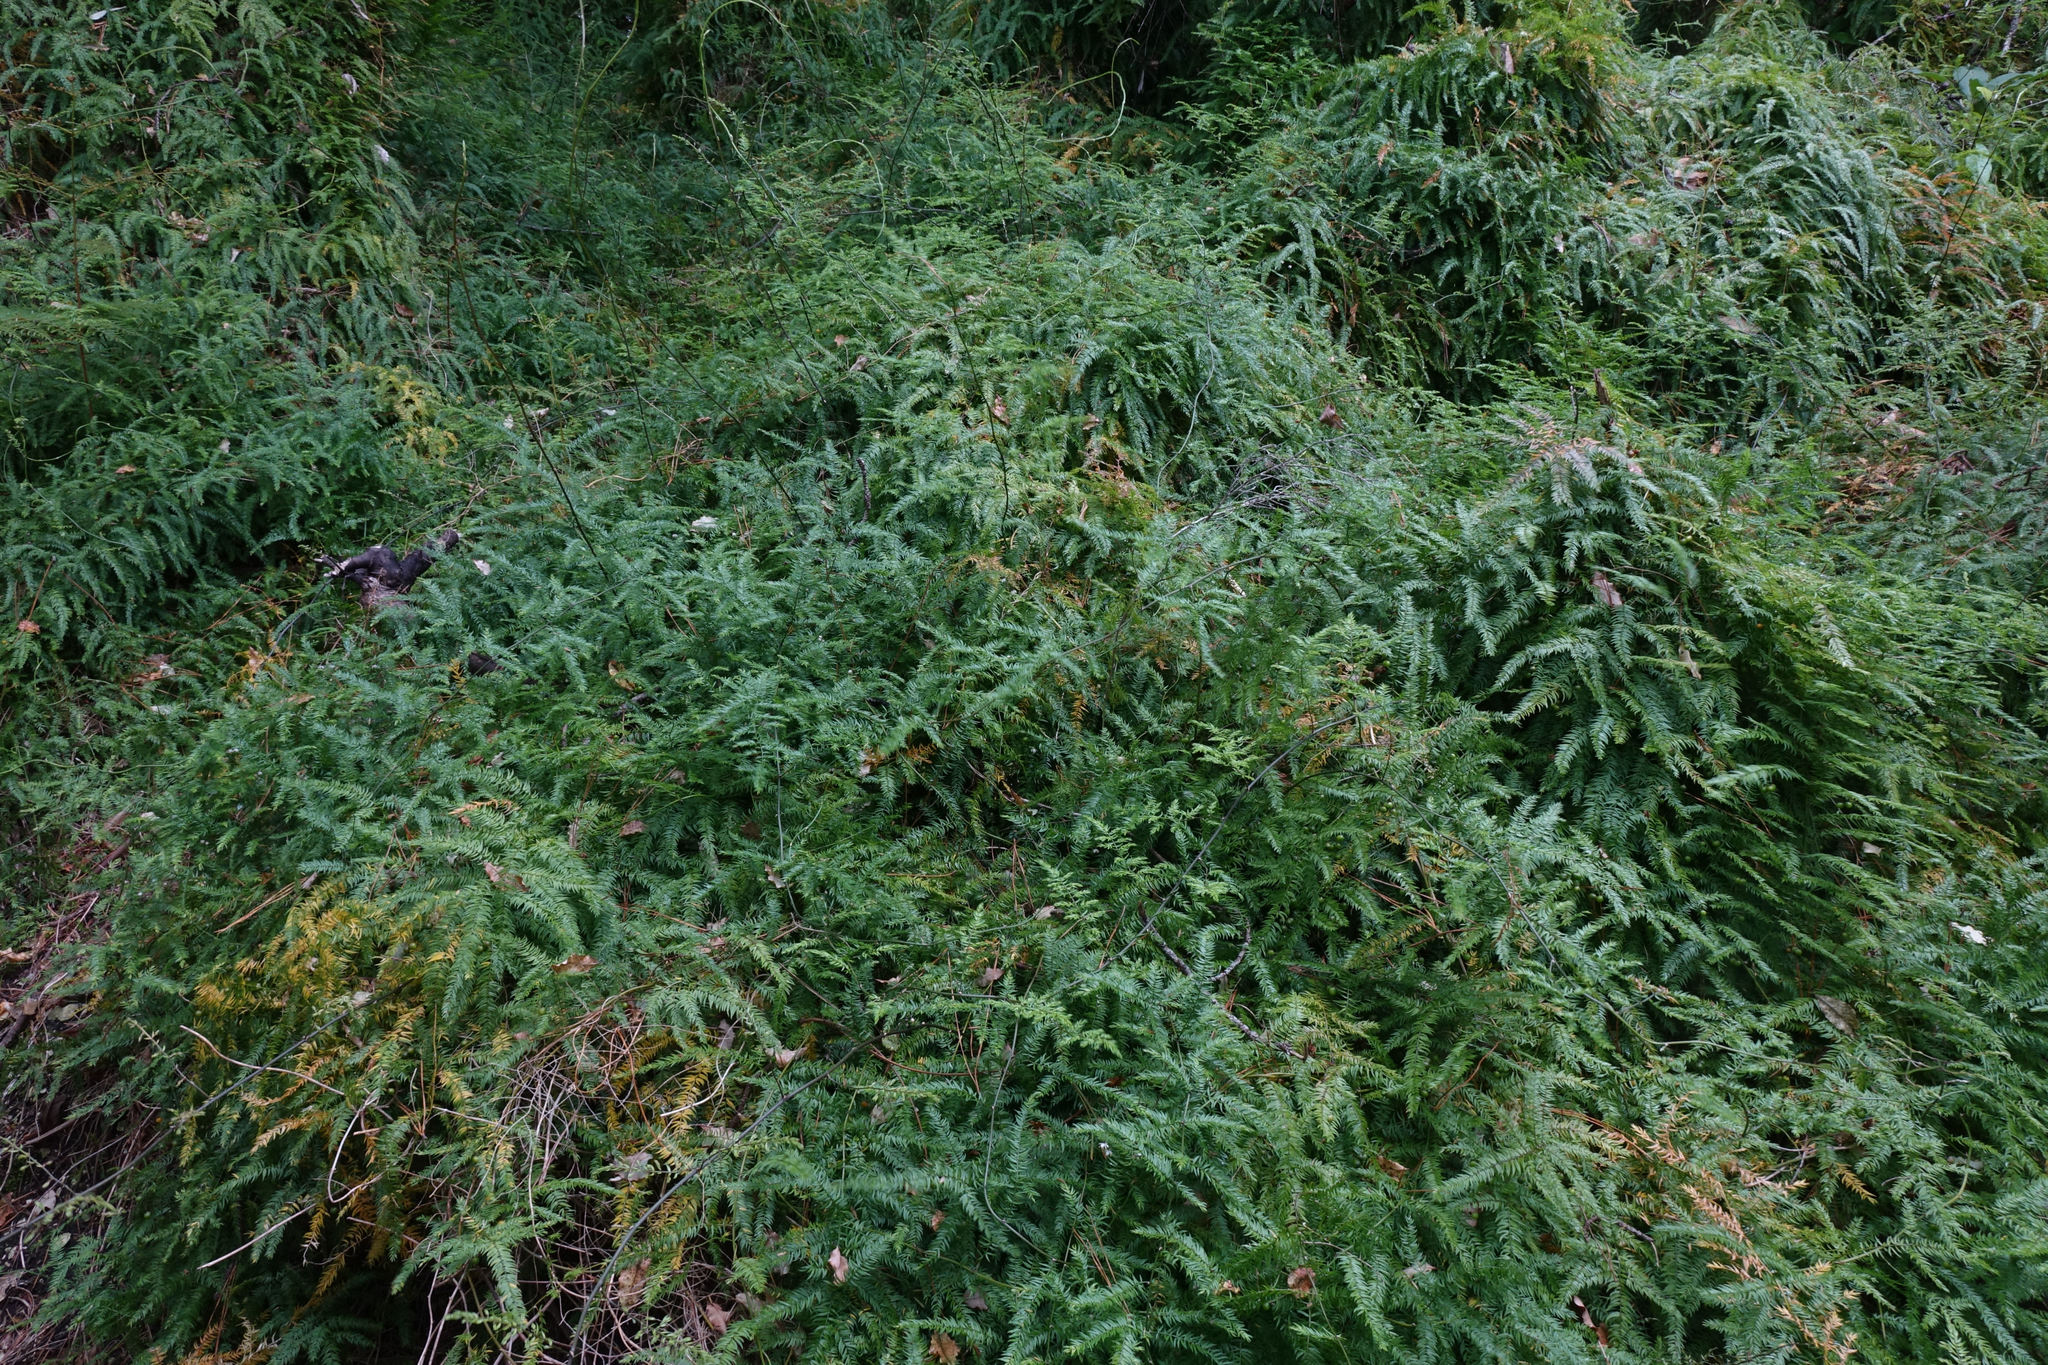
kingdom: Plantae
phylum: Tracheophyta
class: Liliopsida
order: Asparagales
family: Asparagaceae
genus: Asparagus
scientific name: Asparagus scandens
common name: Asparagus-fern
